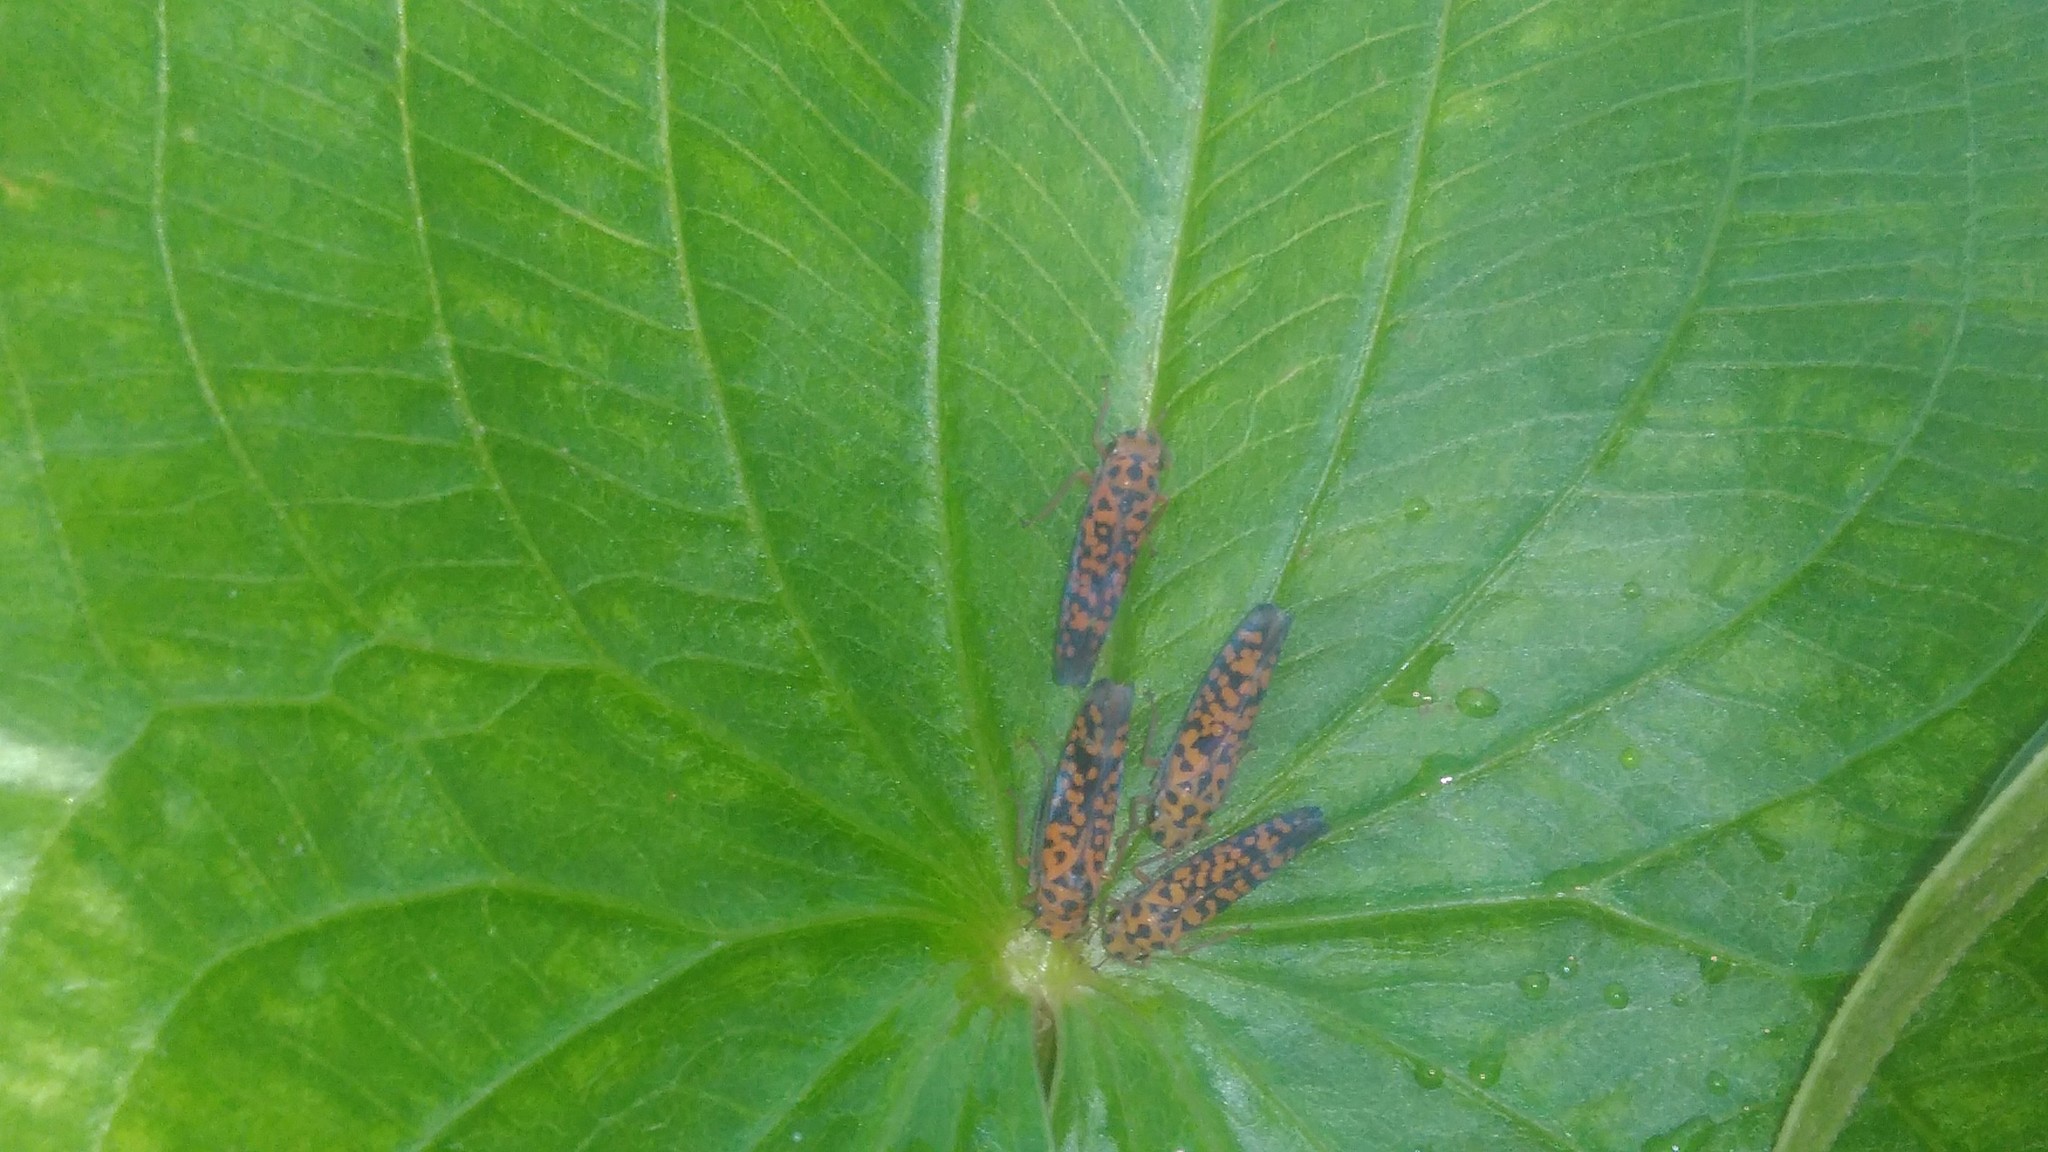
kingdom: Animalia
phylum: Arthropoda
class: Insecta
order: Hemiptera
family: Cicadellidae
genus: Pawiloma
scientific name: Pawiloma victima
